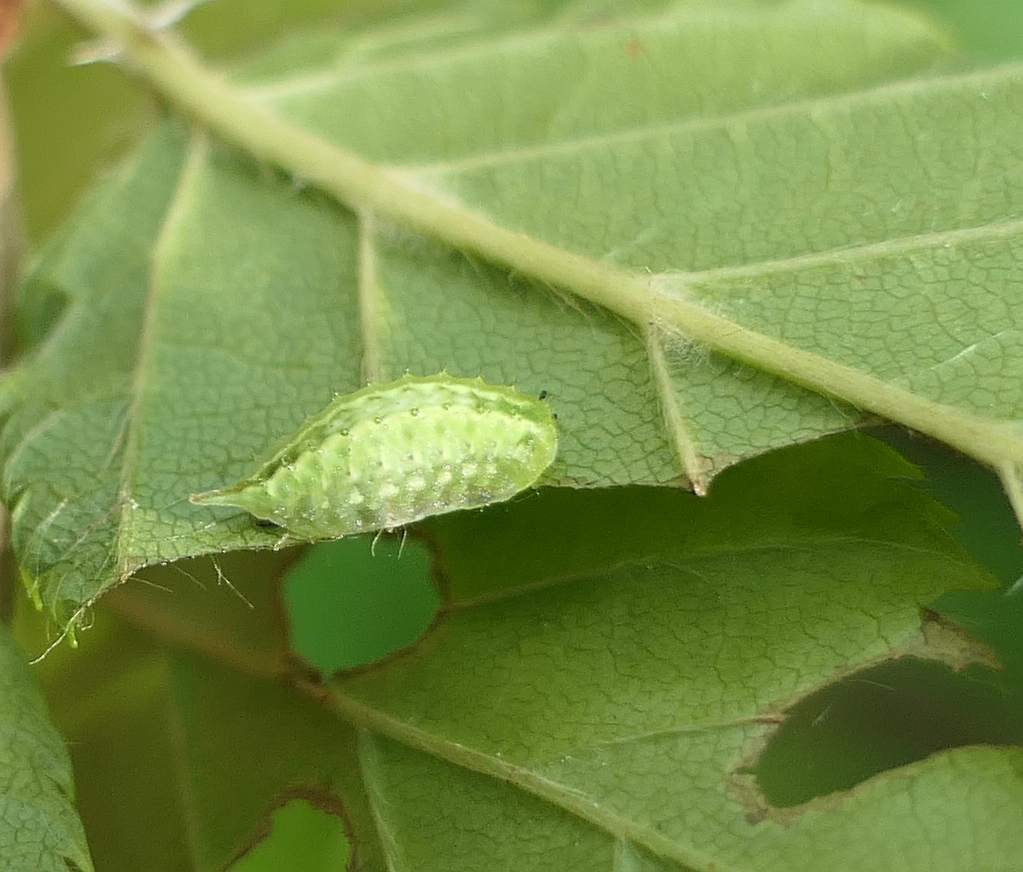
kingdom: Animalia
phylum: Arthropoda
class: Insecta
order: Lepidoptera
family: Limacodidae
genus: Packardia
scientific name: Packardia elegans
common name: Elegant tailed slug moth
